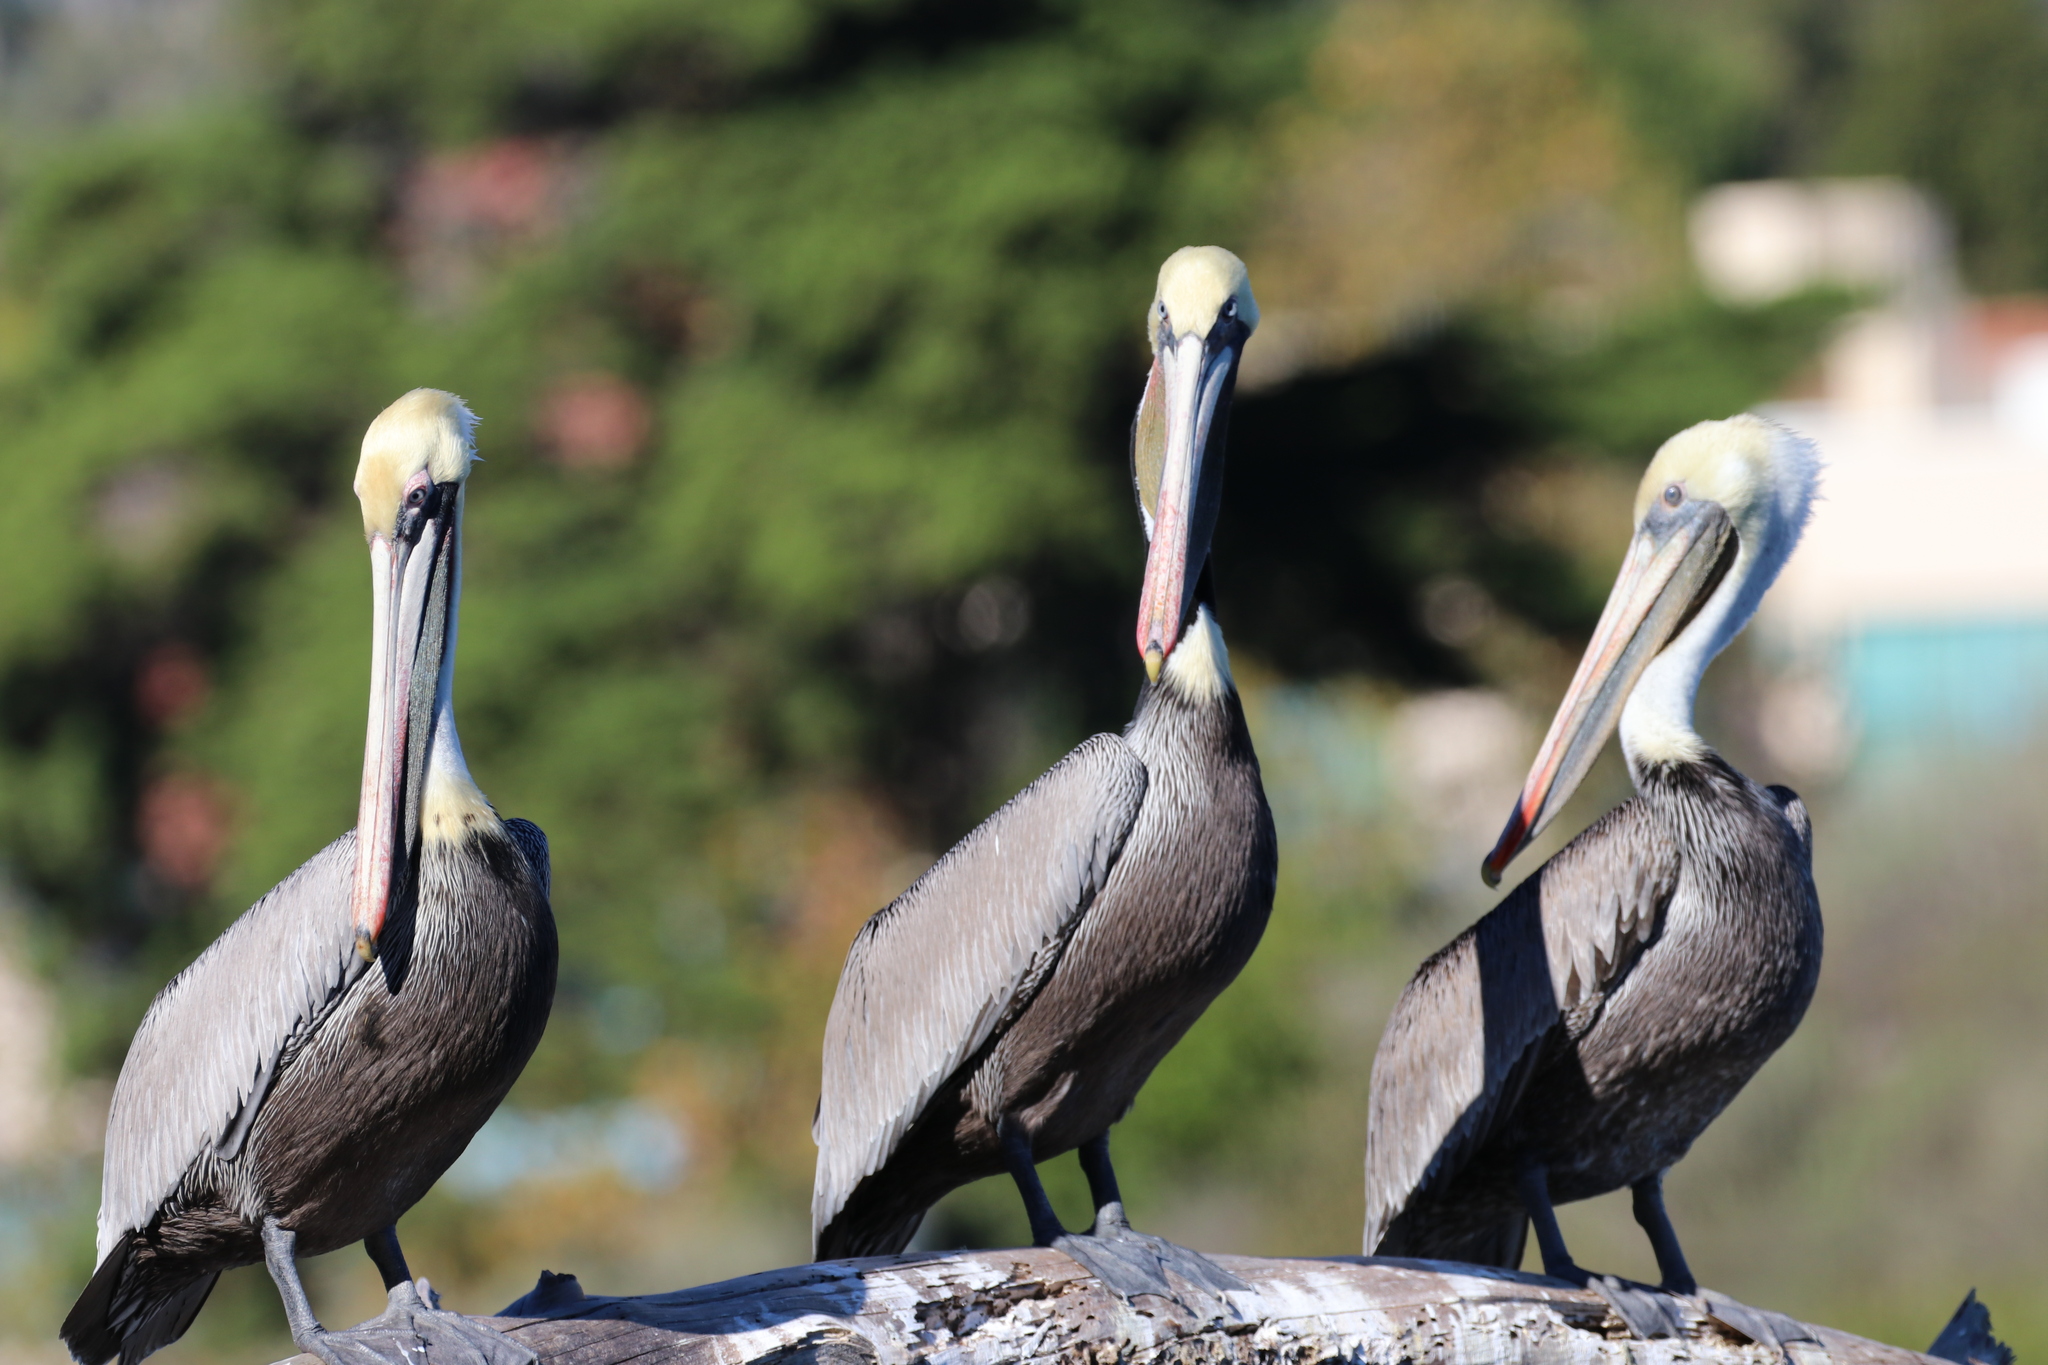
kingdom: Animalia
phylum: Chordata
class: Aves
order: Pelecaniformes
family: Pelecanidae
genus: Pelecanus
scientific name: Pelecanus occidentalis
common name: Brown pelican
